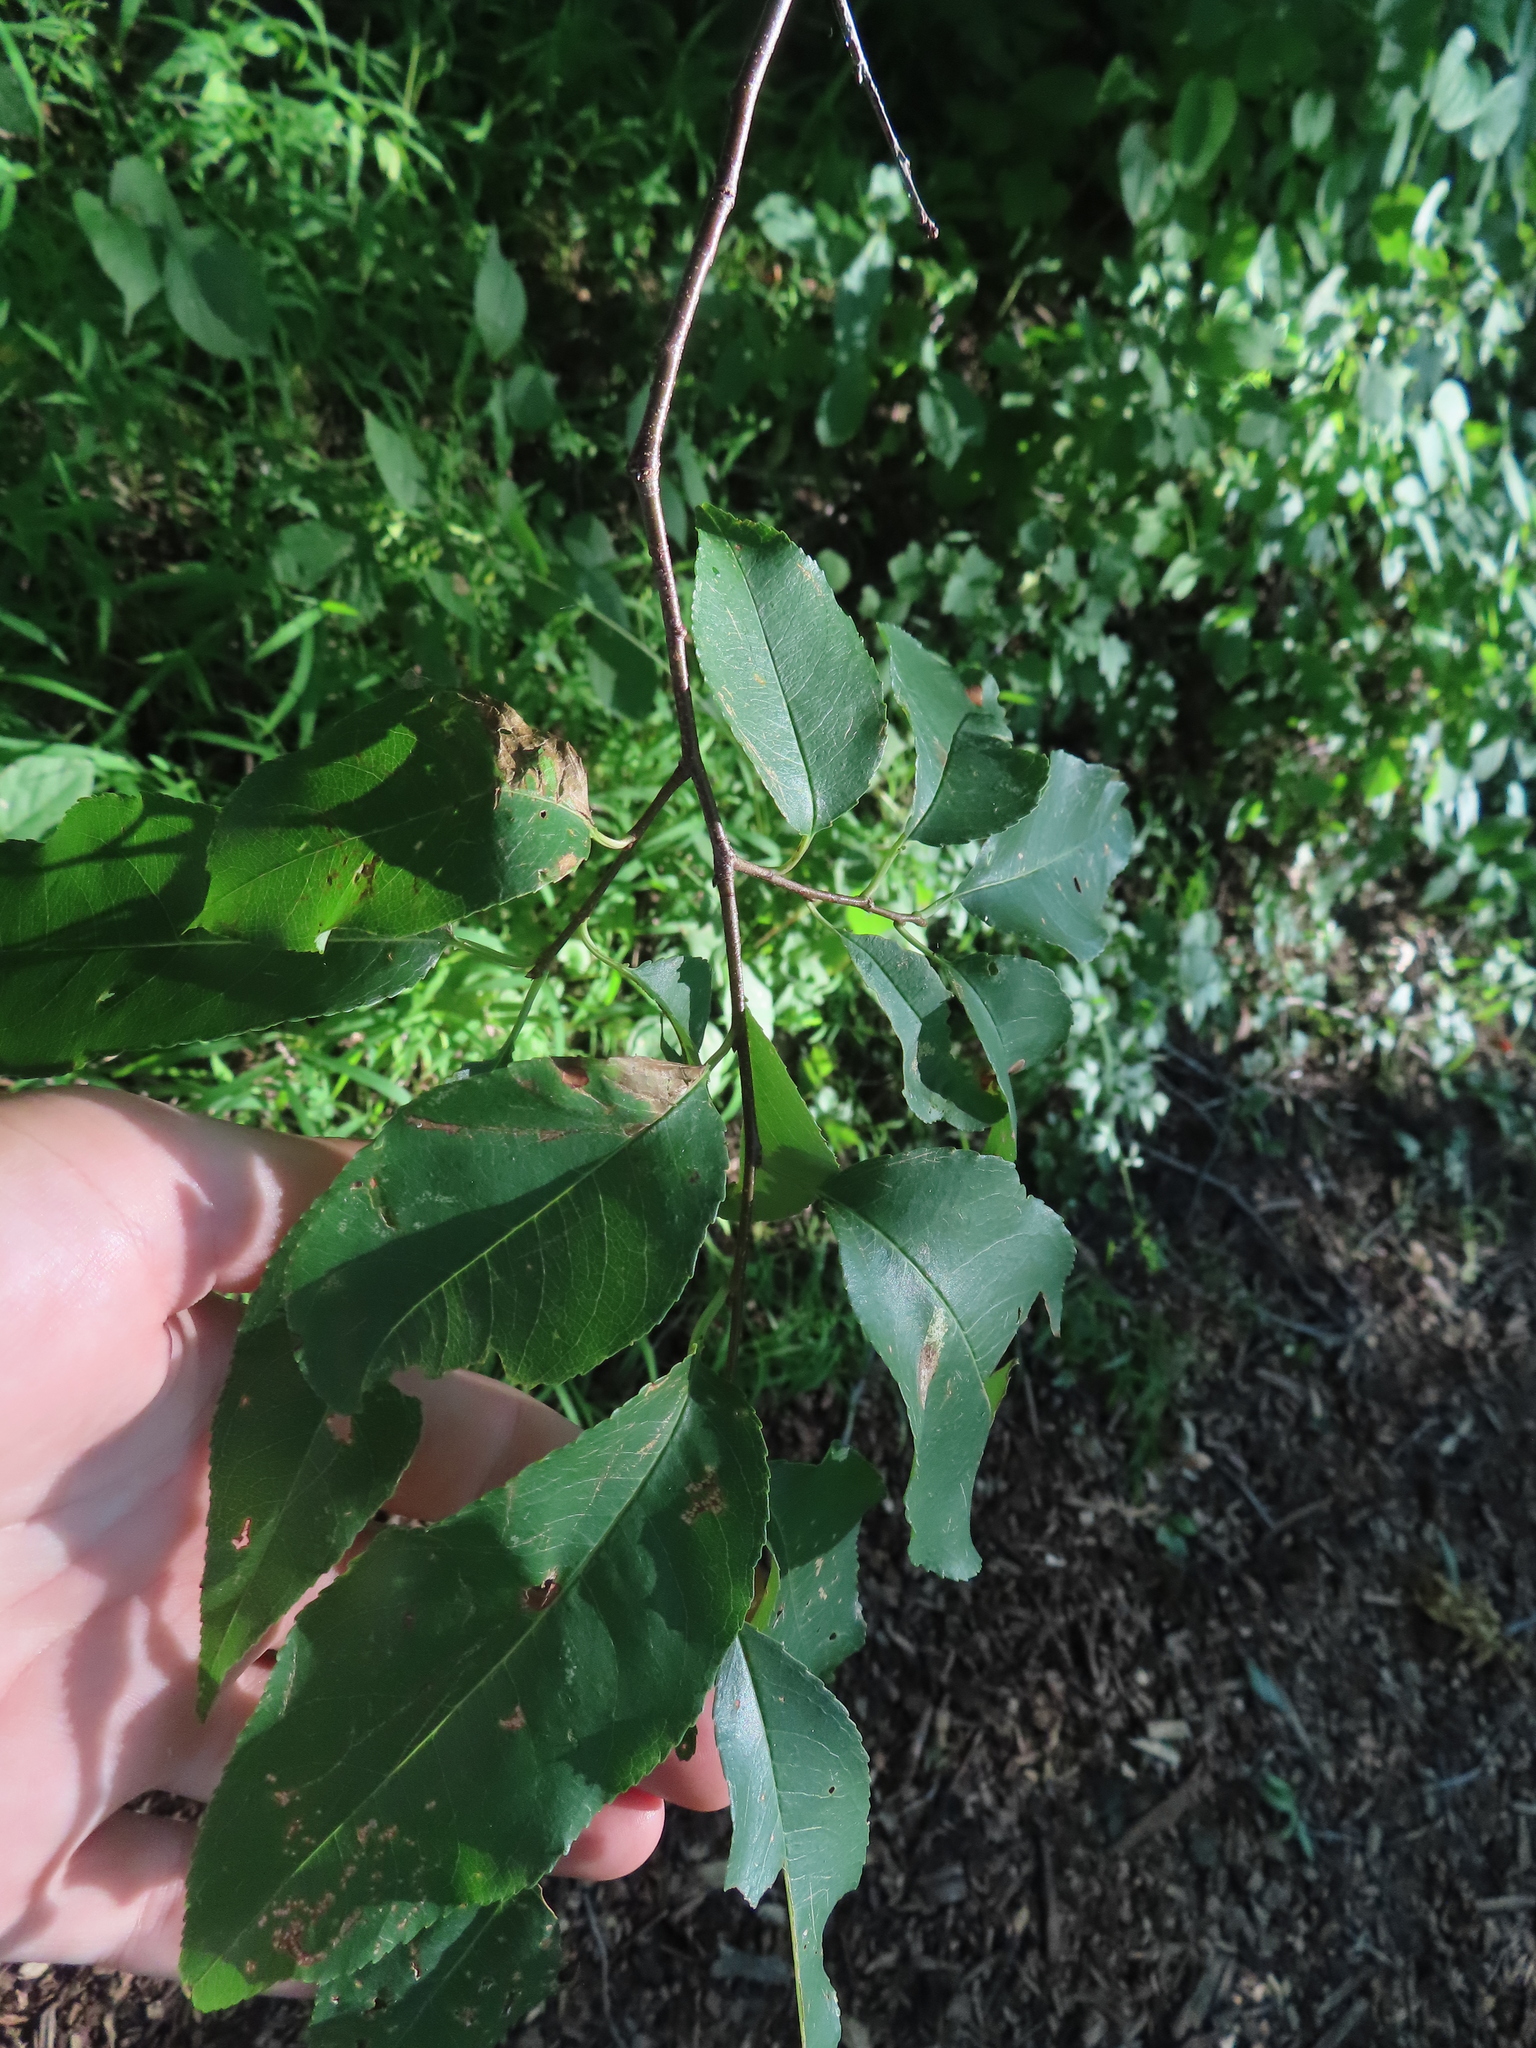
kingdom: Plantae
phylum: Tracheophyta
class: Magnoliopsida
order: Rosales
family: Rosaceae
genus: Prunus
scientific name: Prunus serotina
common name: Black cherry
